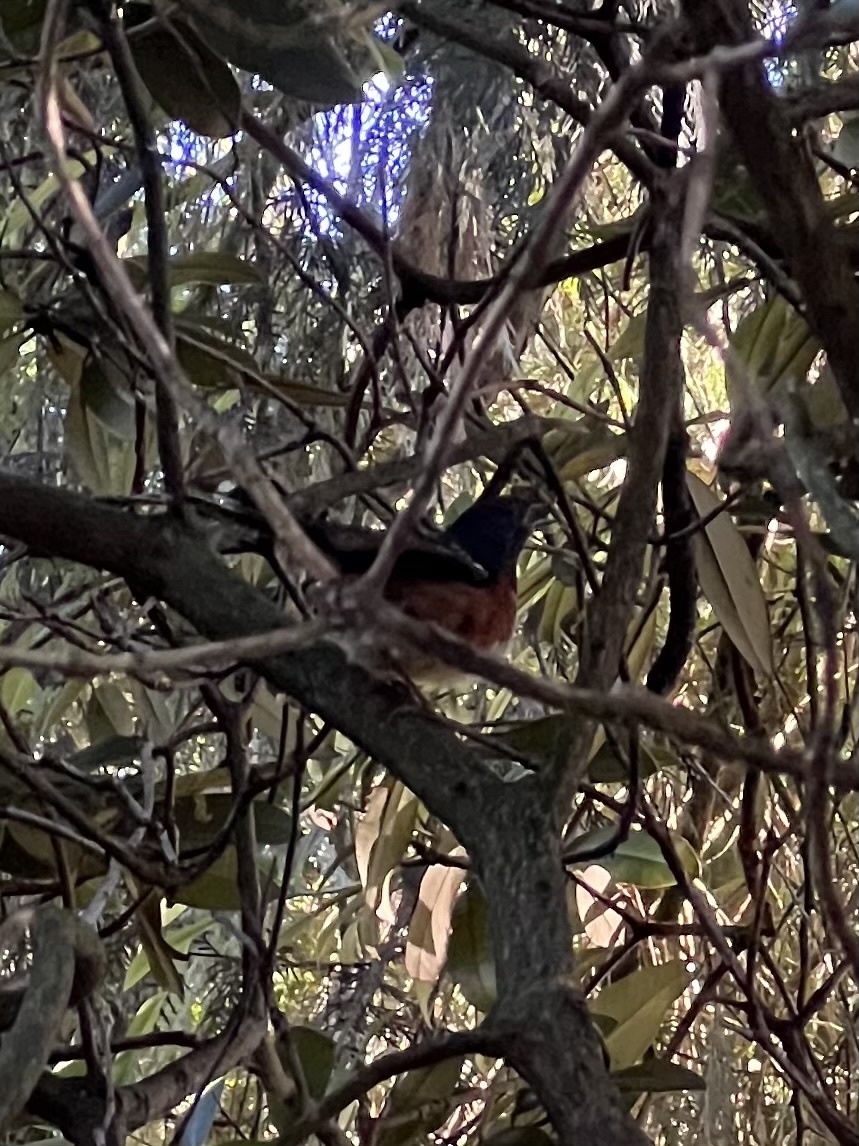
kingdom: Animalia
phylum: Chordata
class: Aves
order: Passeriformes
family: Passerellidae
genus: Pipilo
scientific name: Pipilo maculatus
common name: Spotted towhee
